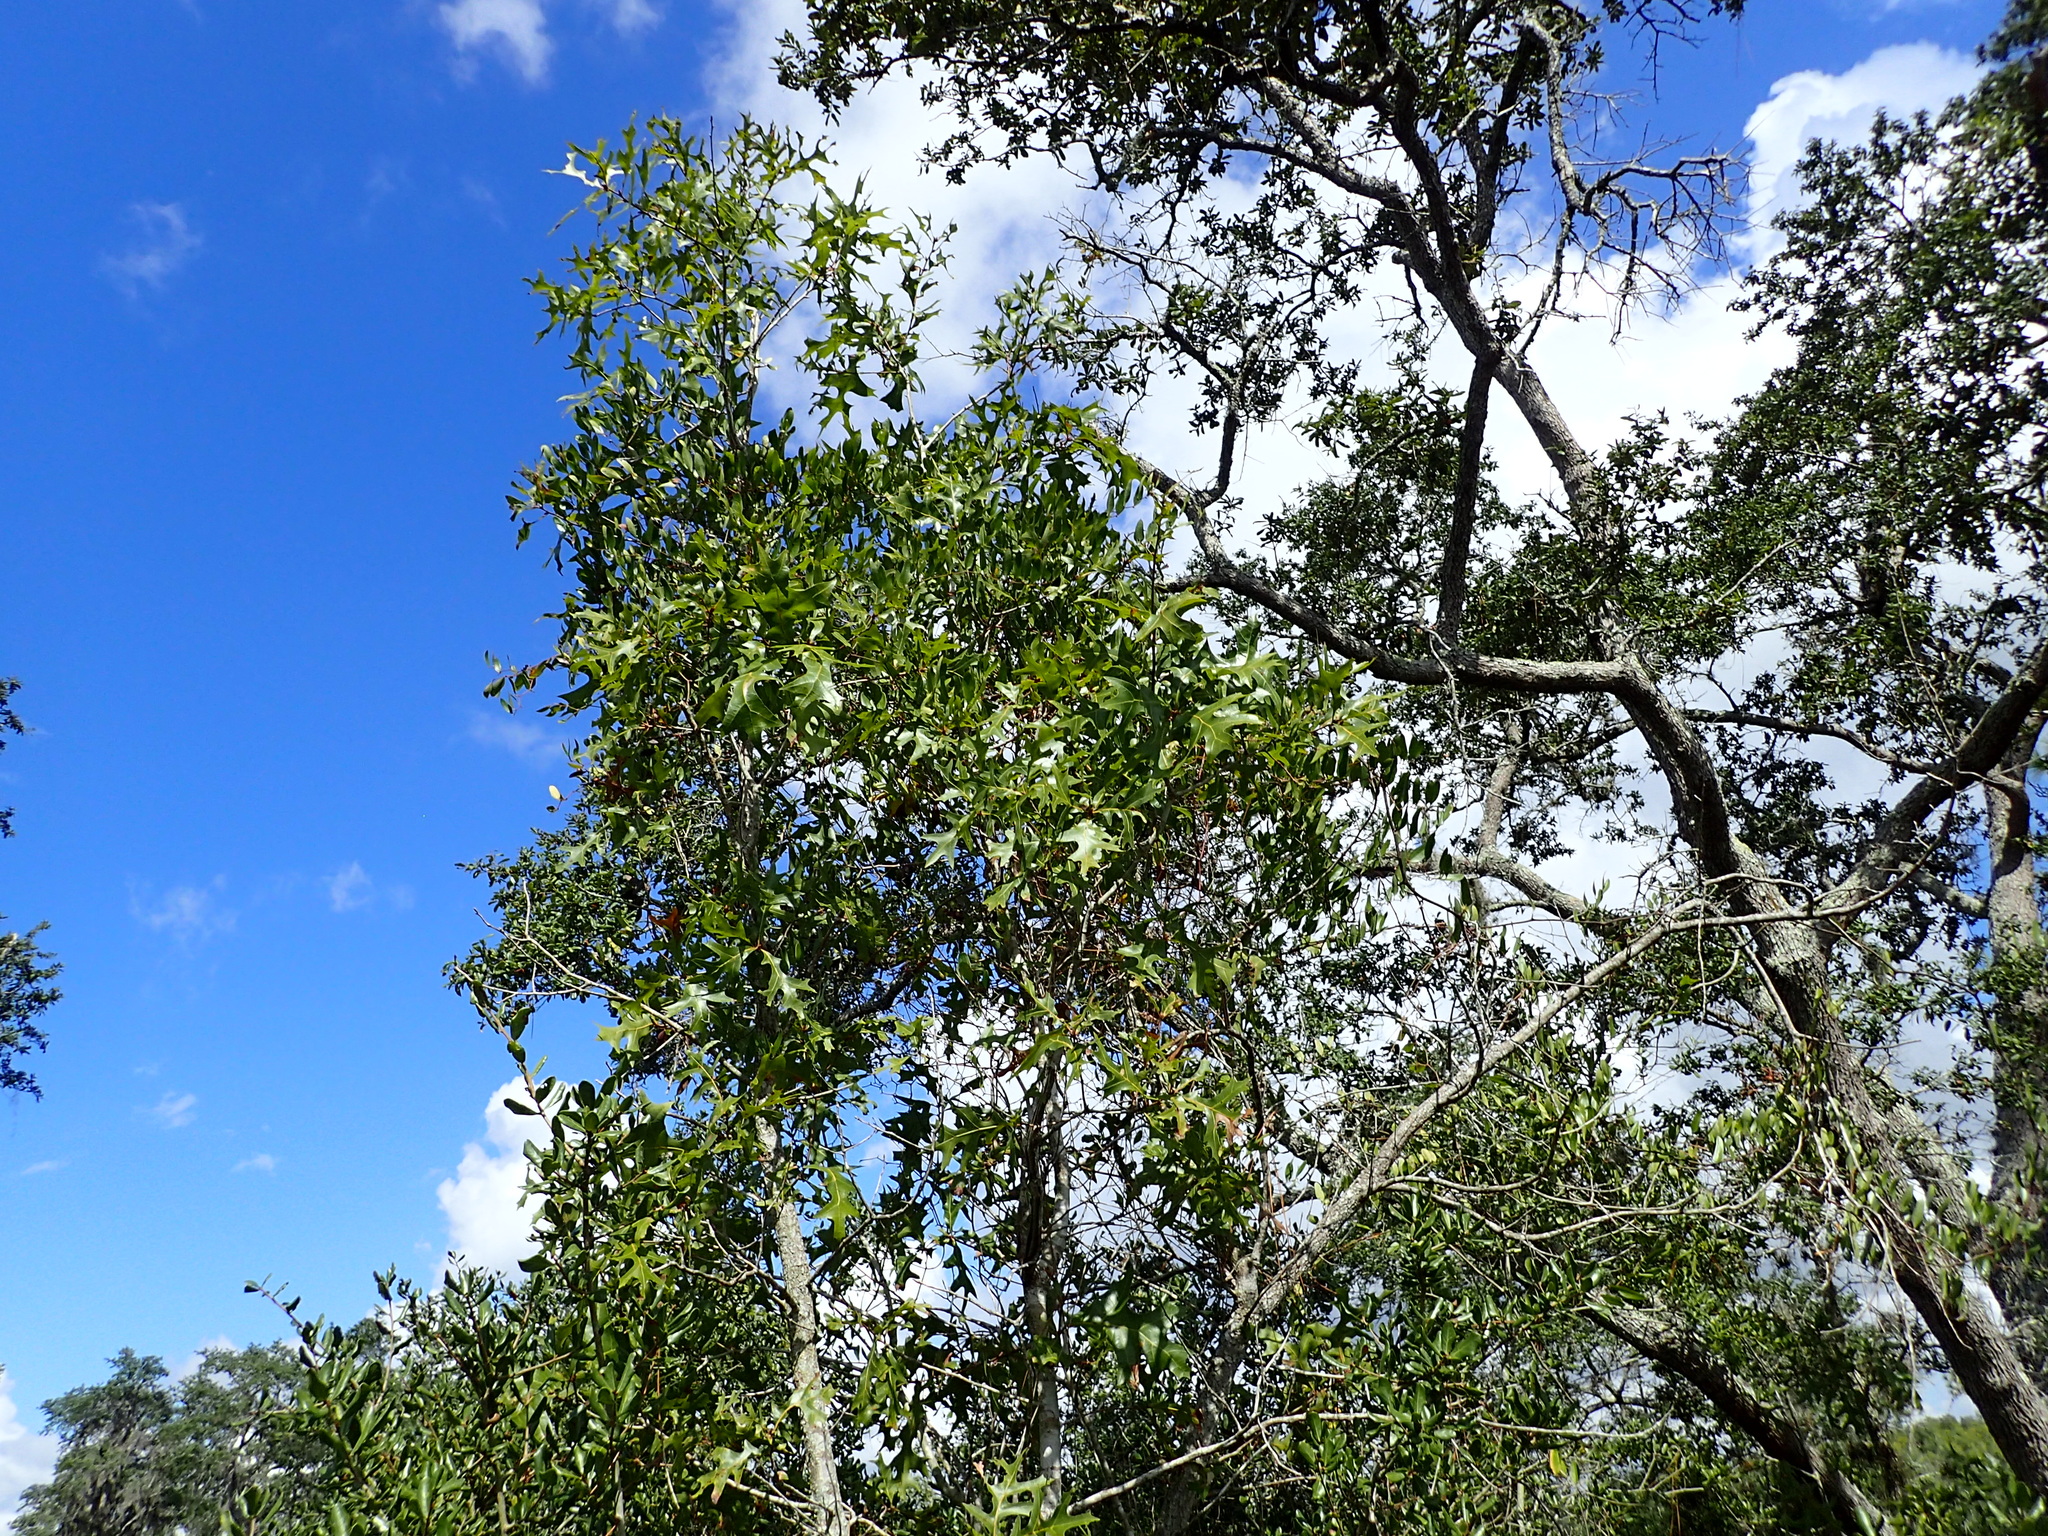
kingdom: Plantae
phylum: Tracheophyta
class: Magnoliopsida
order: Fagales
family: Fagaceae
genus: Quercus
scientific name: Quercus laevis
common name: Turkey oak
